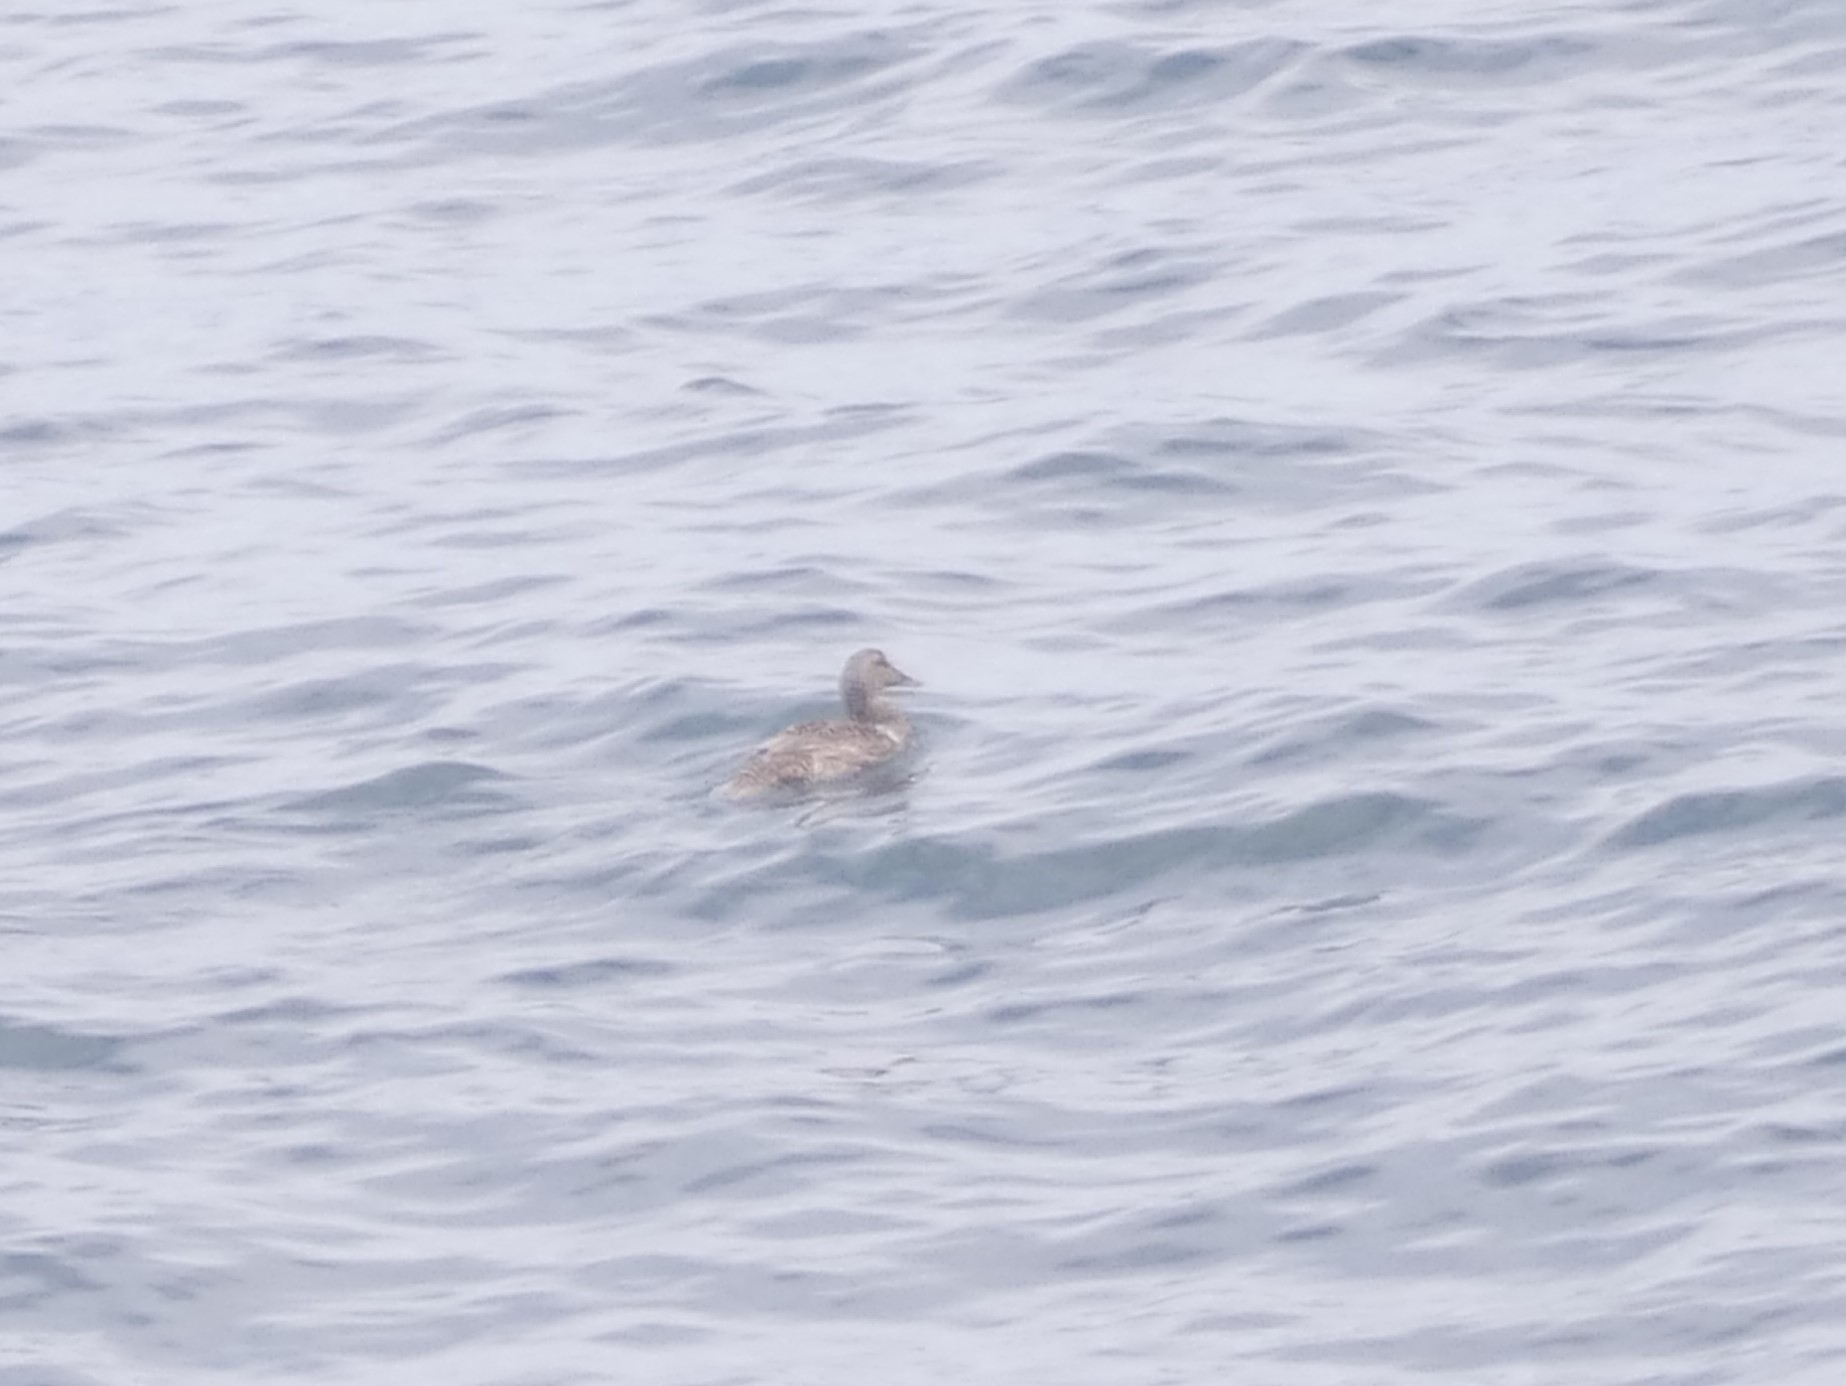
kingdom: Animalia
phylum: Chordata
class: Aves
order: Anseriformes
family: Anatidae
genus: Somateria
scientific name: Somateria mollissima
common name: Common eider
